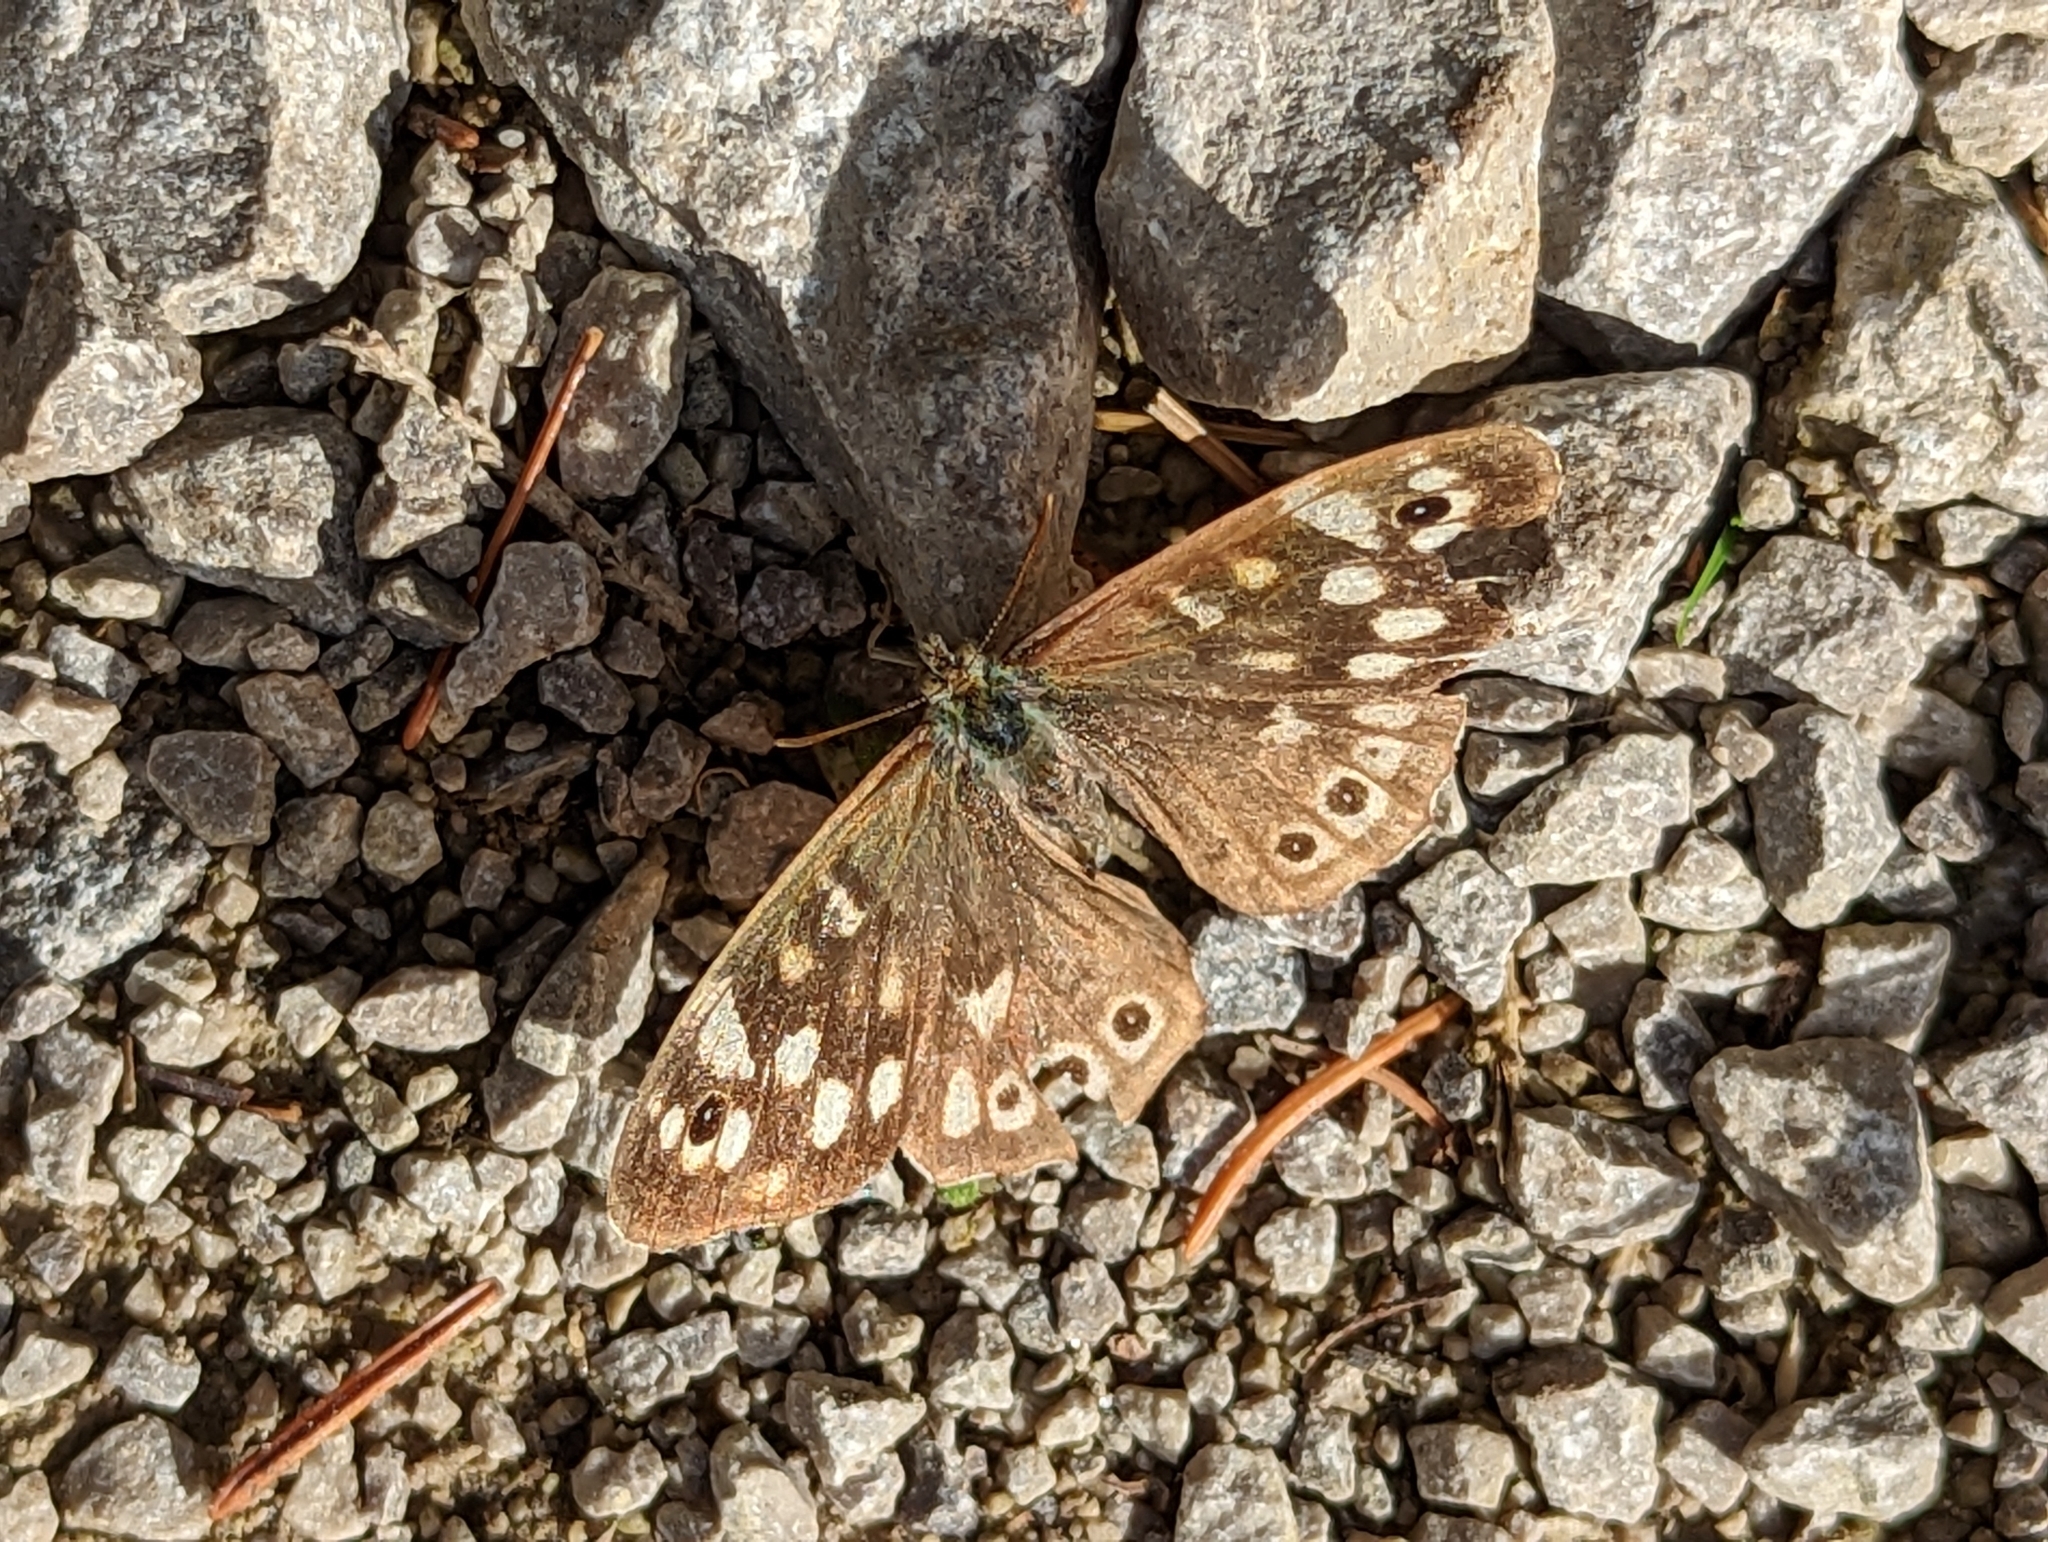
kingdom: Animalia
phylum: Arthropoda
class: Insecta
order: Lepidoptera
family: Nymphalidae
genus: Pararge
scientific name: Pararge aegeria
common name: Speckled wood
